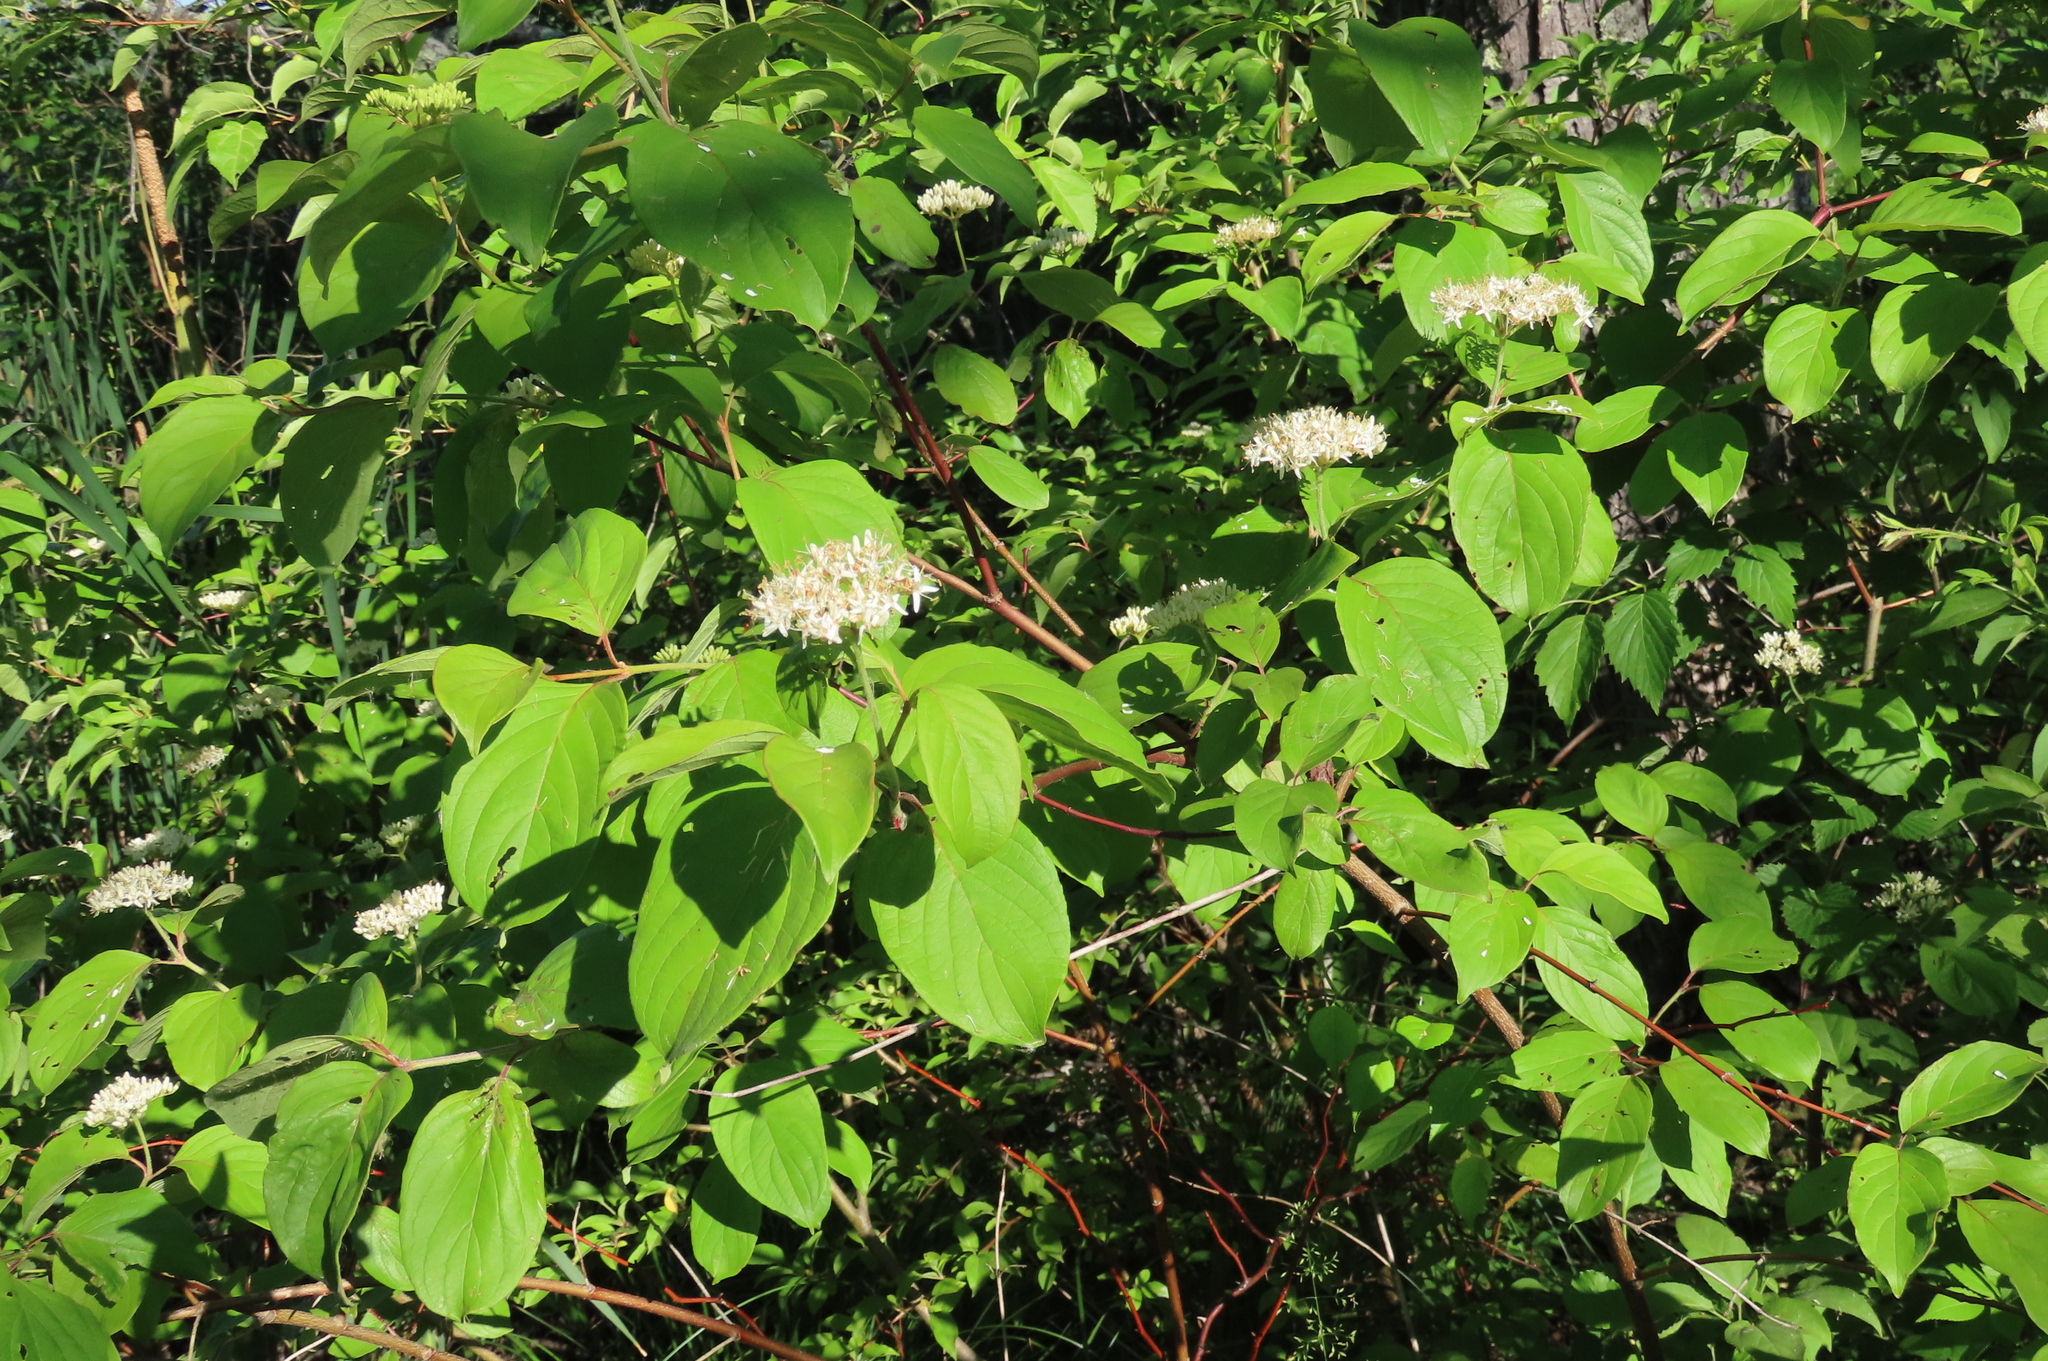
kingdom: Plantae
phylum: Tracheophyta
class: Magnoliopsida
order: Cornales
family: Cornaceae
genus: Cornus
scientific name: Cornus amomum
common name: Silky dogwood
